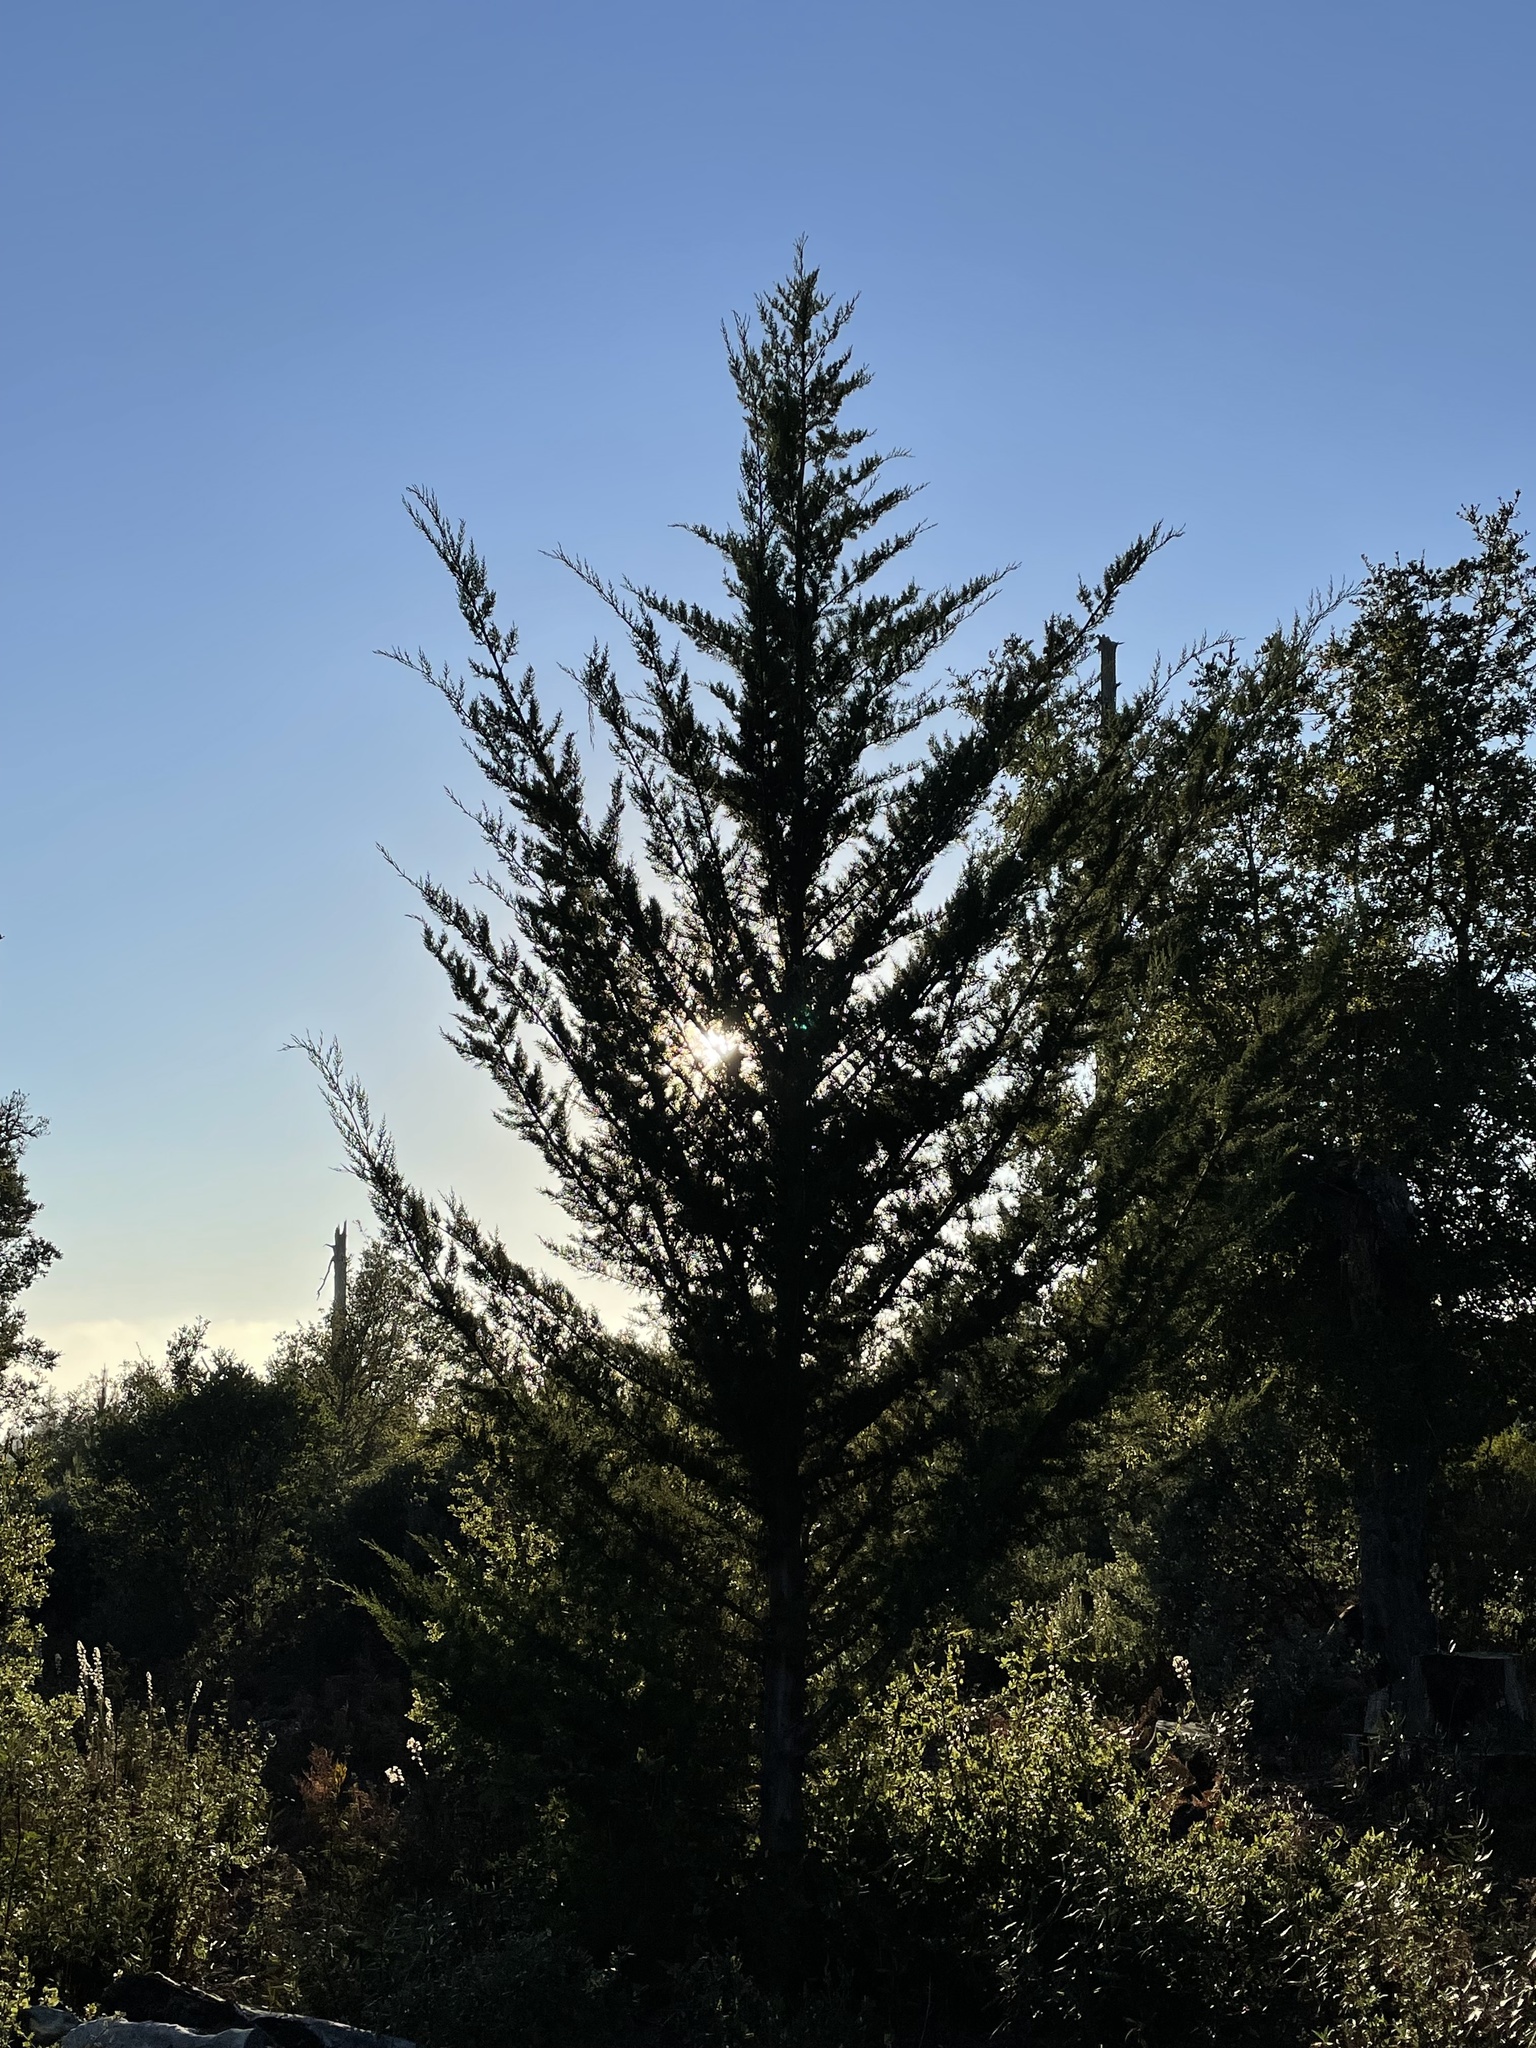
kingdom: Plantae
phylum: Tracheophyta
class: Pinopsida
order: Pinales
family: Cupressaceae
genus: Cupressus
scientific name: Cupressus goveniana
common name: Gowen cypress
